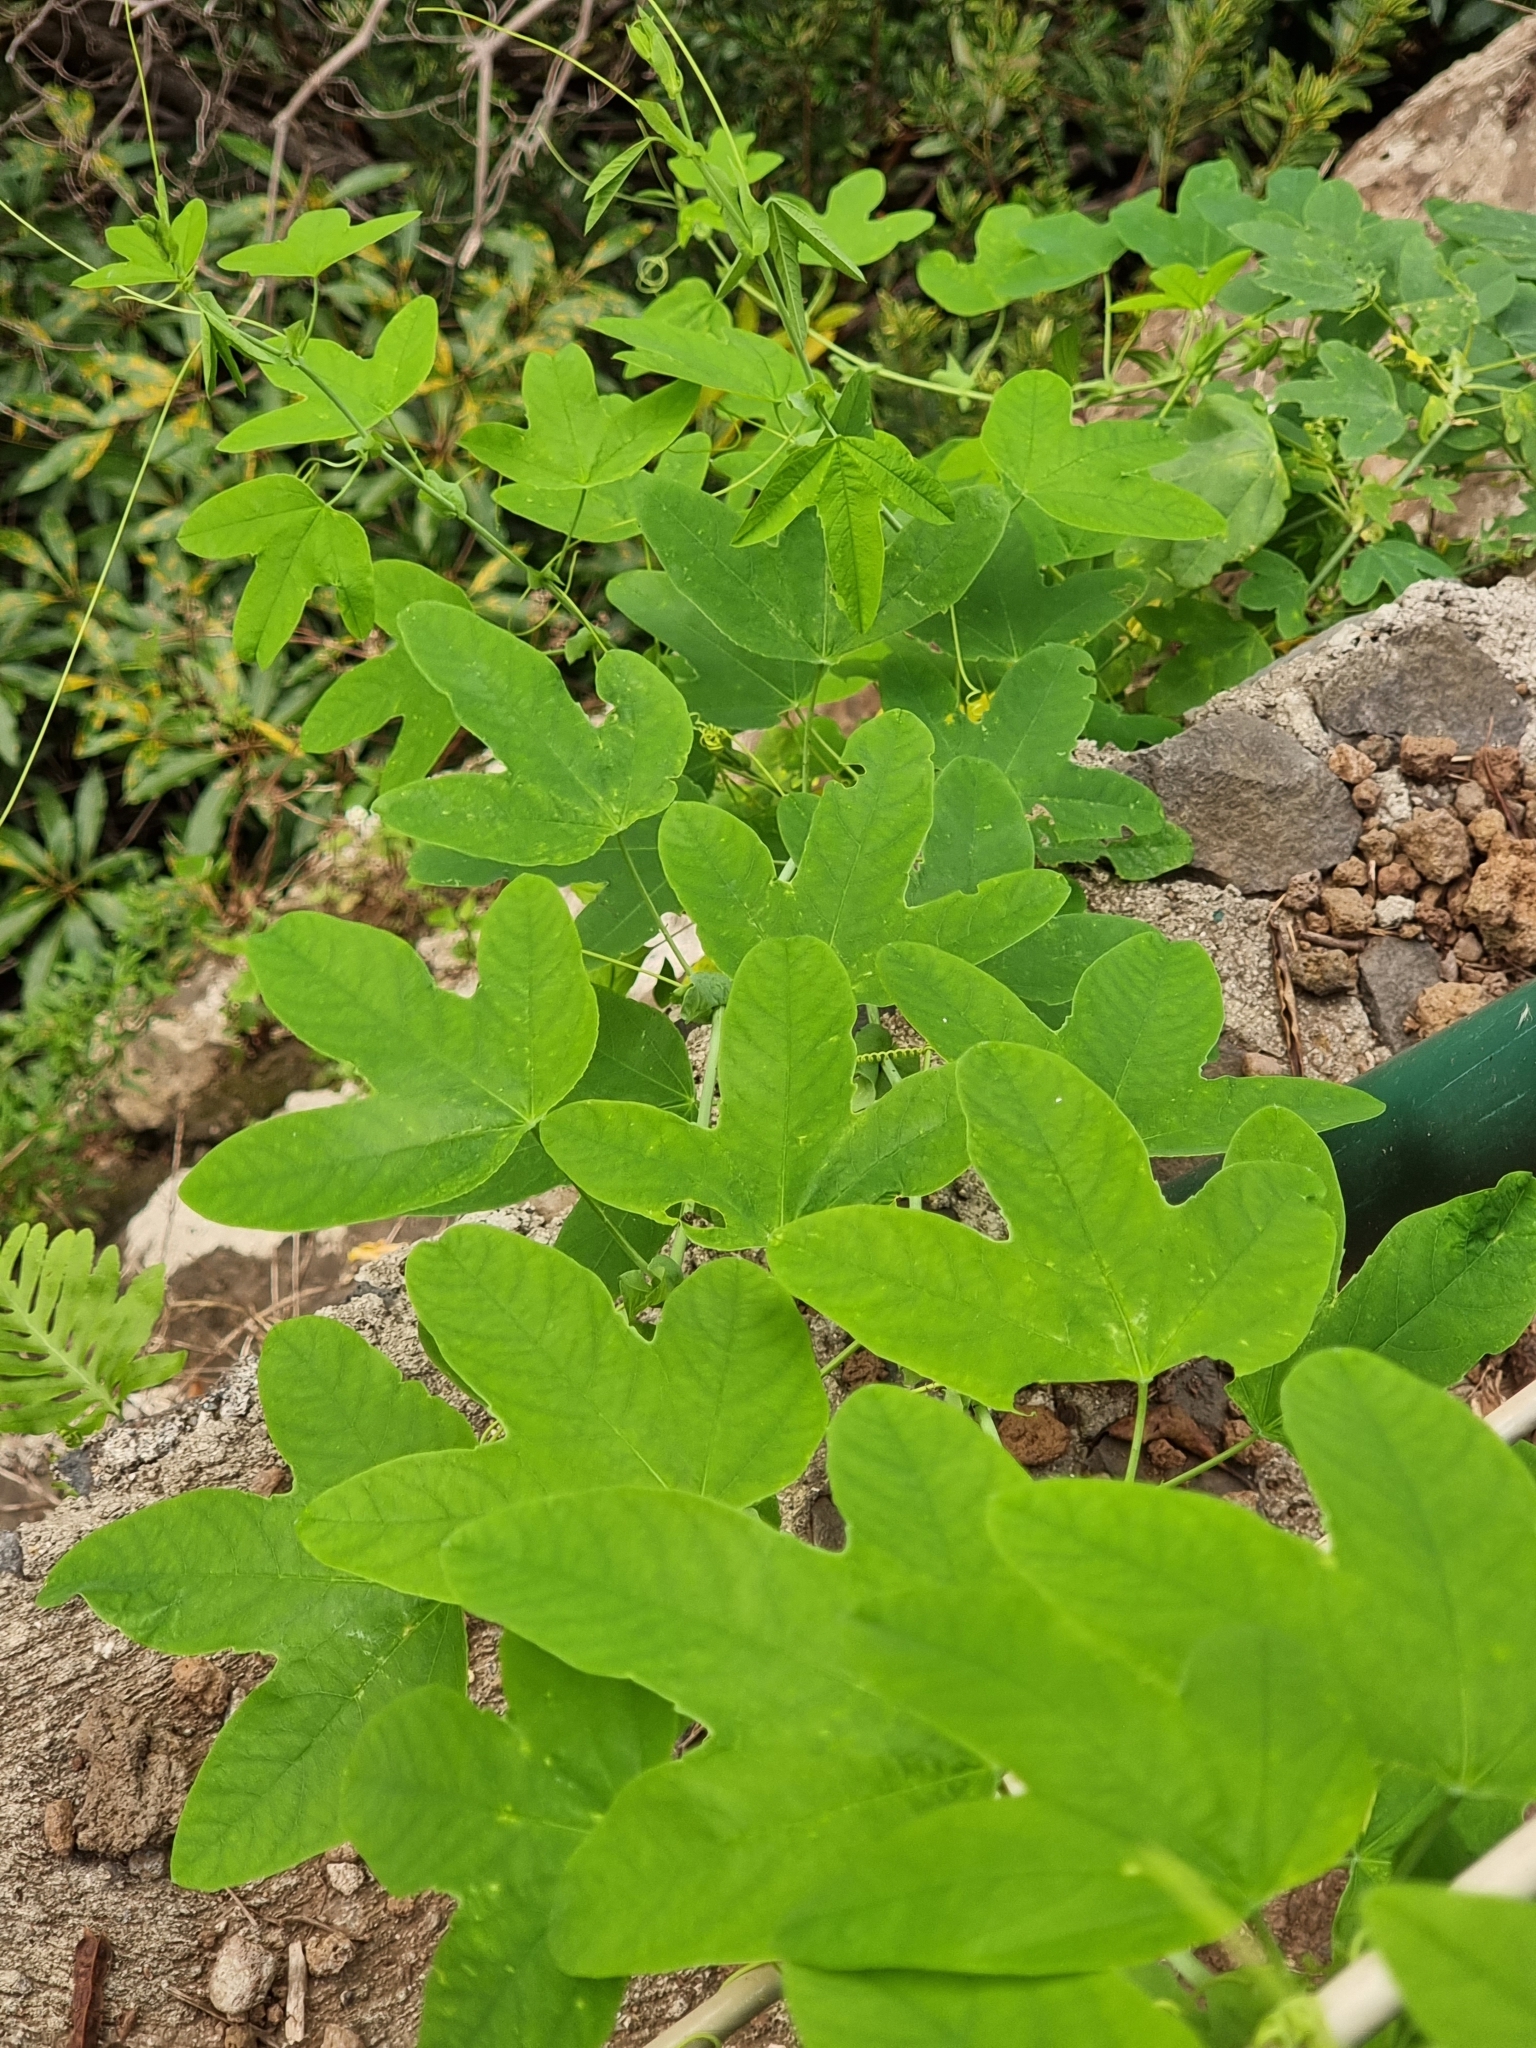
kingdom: Plantae
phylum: Tracheophyta
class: Magnoliopsida
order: Malpighiales
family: Passifloraceae
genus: Passiflora
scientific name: Passiflora subpeltata
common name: White passionflower
